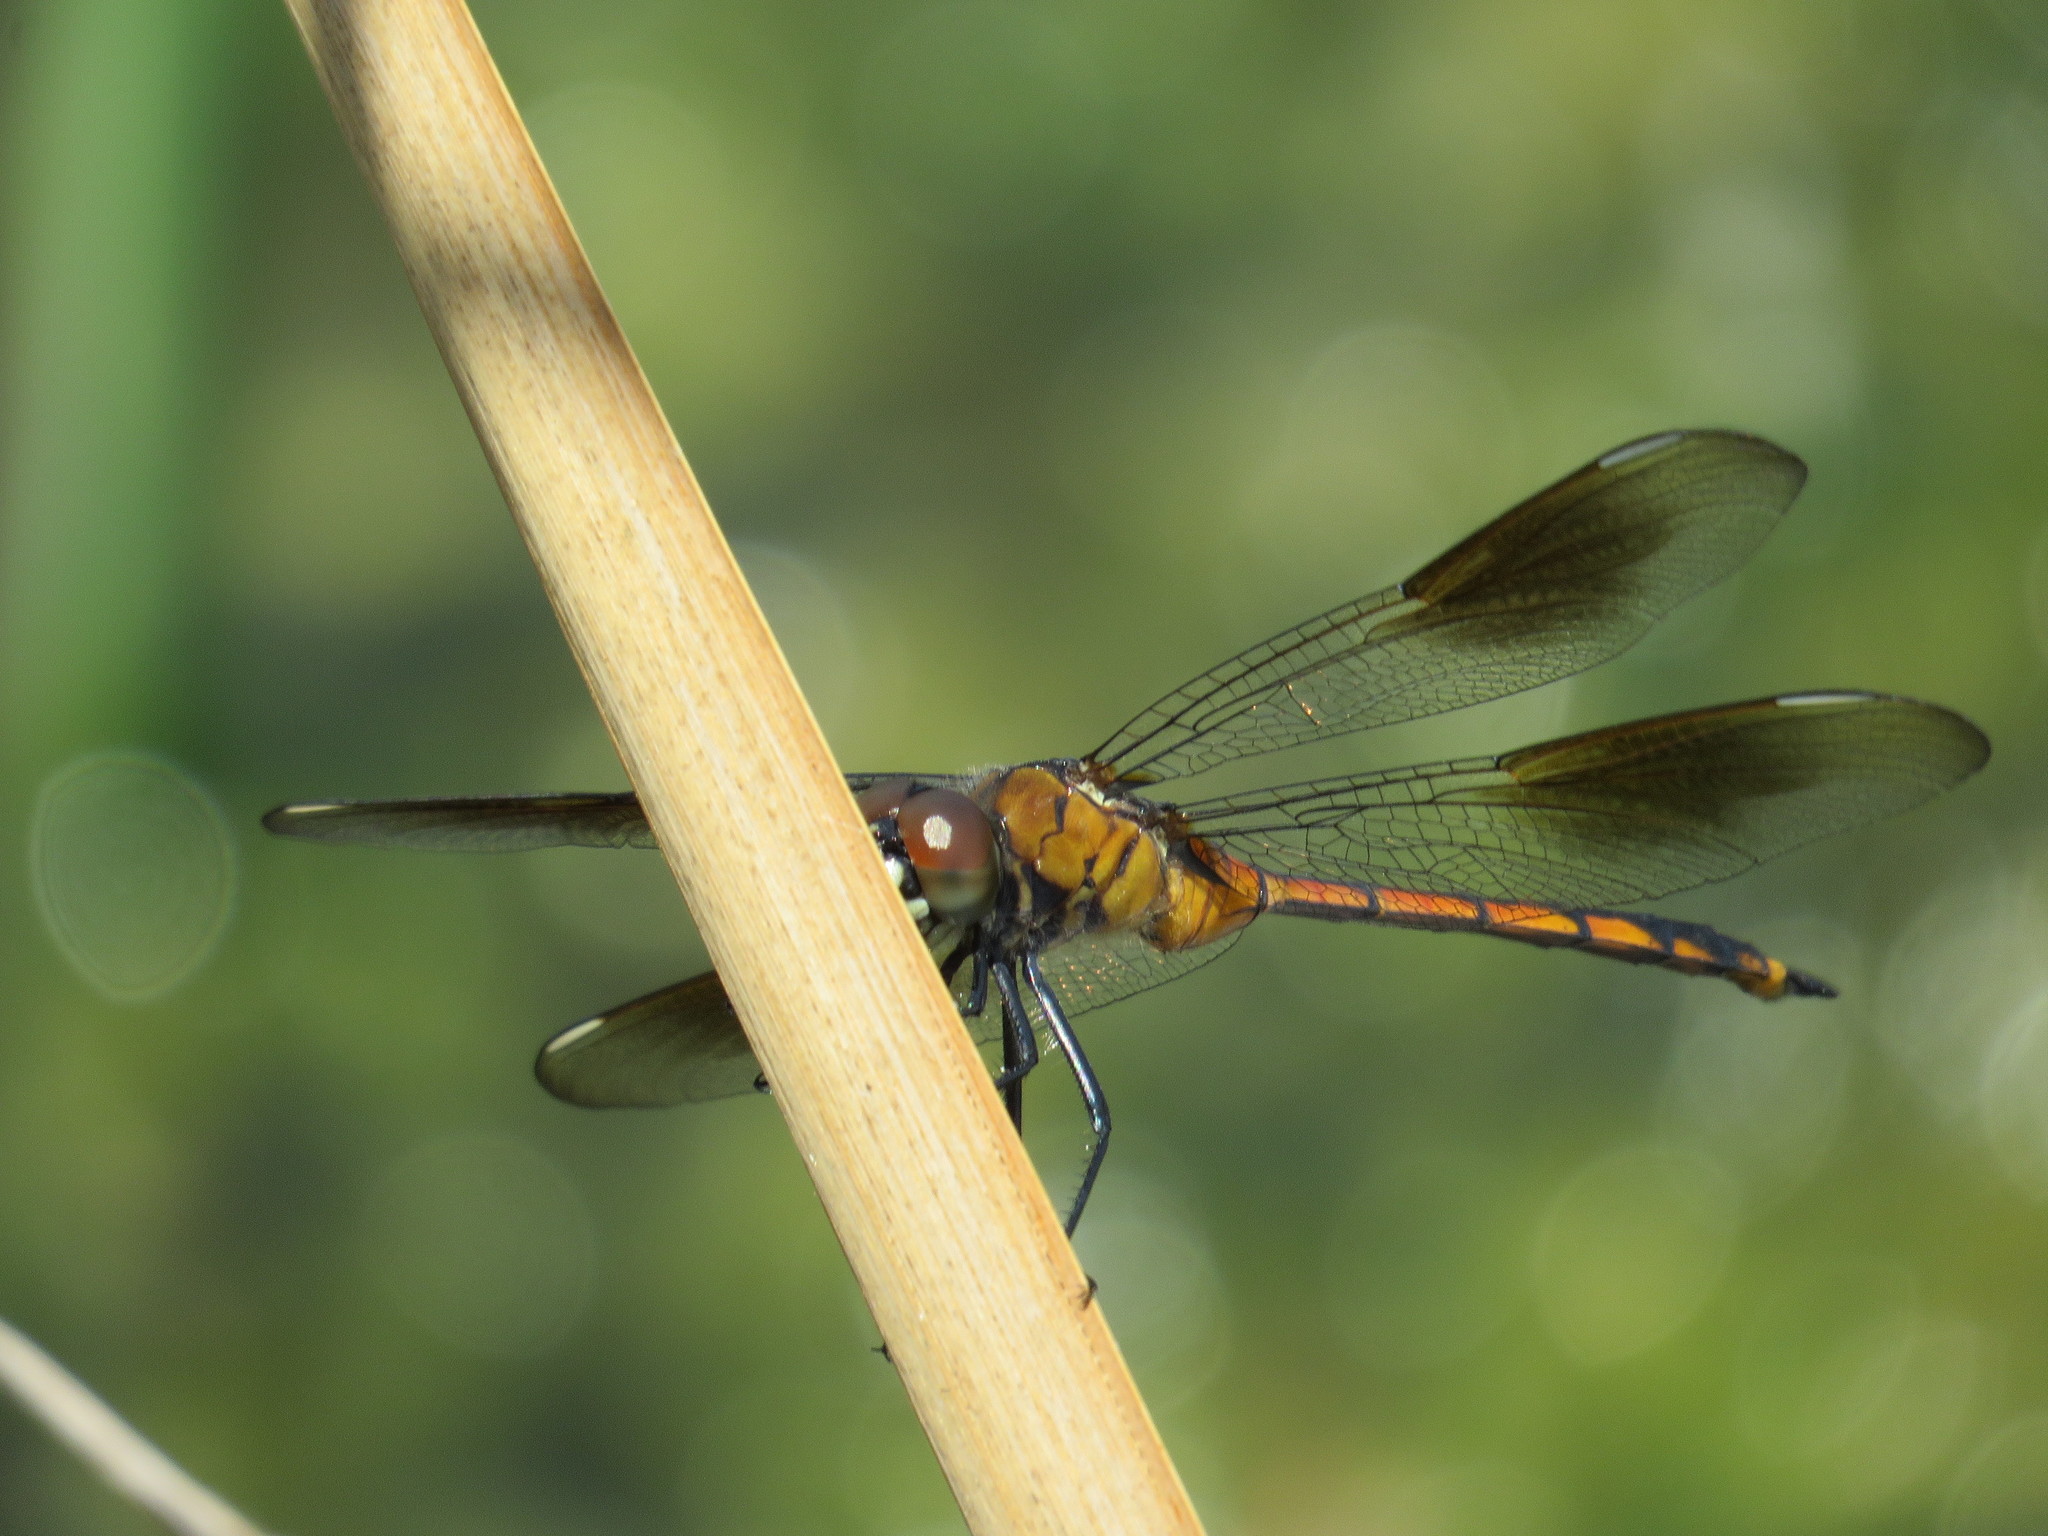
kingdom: Animalia
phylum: Arthropoda
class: Insecta
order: Odonata
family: Libellulidae
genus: Brachymesia
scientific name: Brachymesia gravida
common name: Four-spotted pennant
